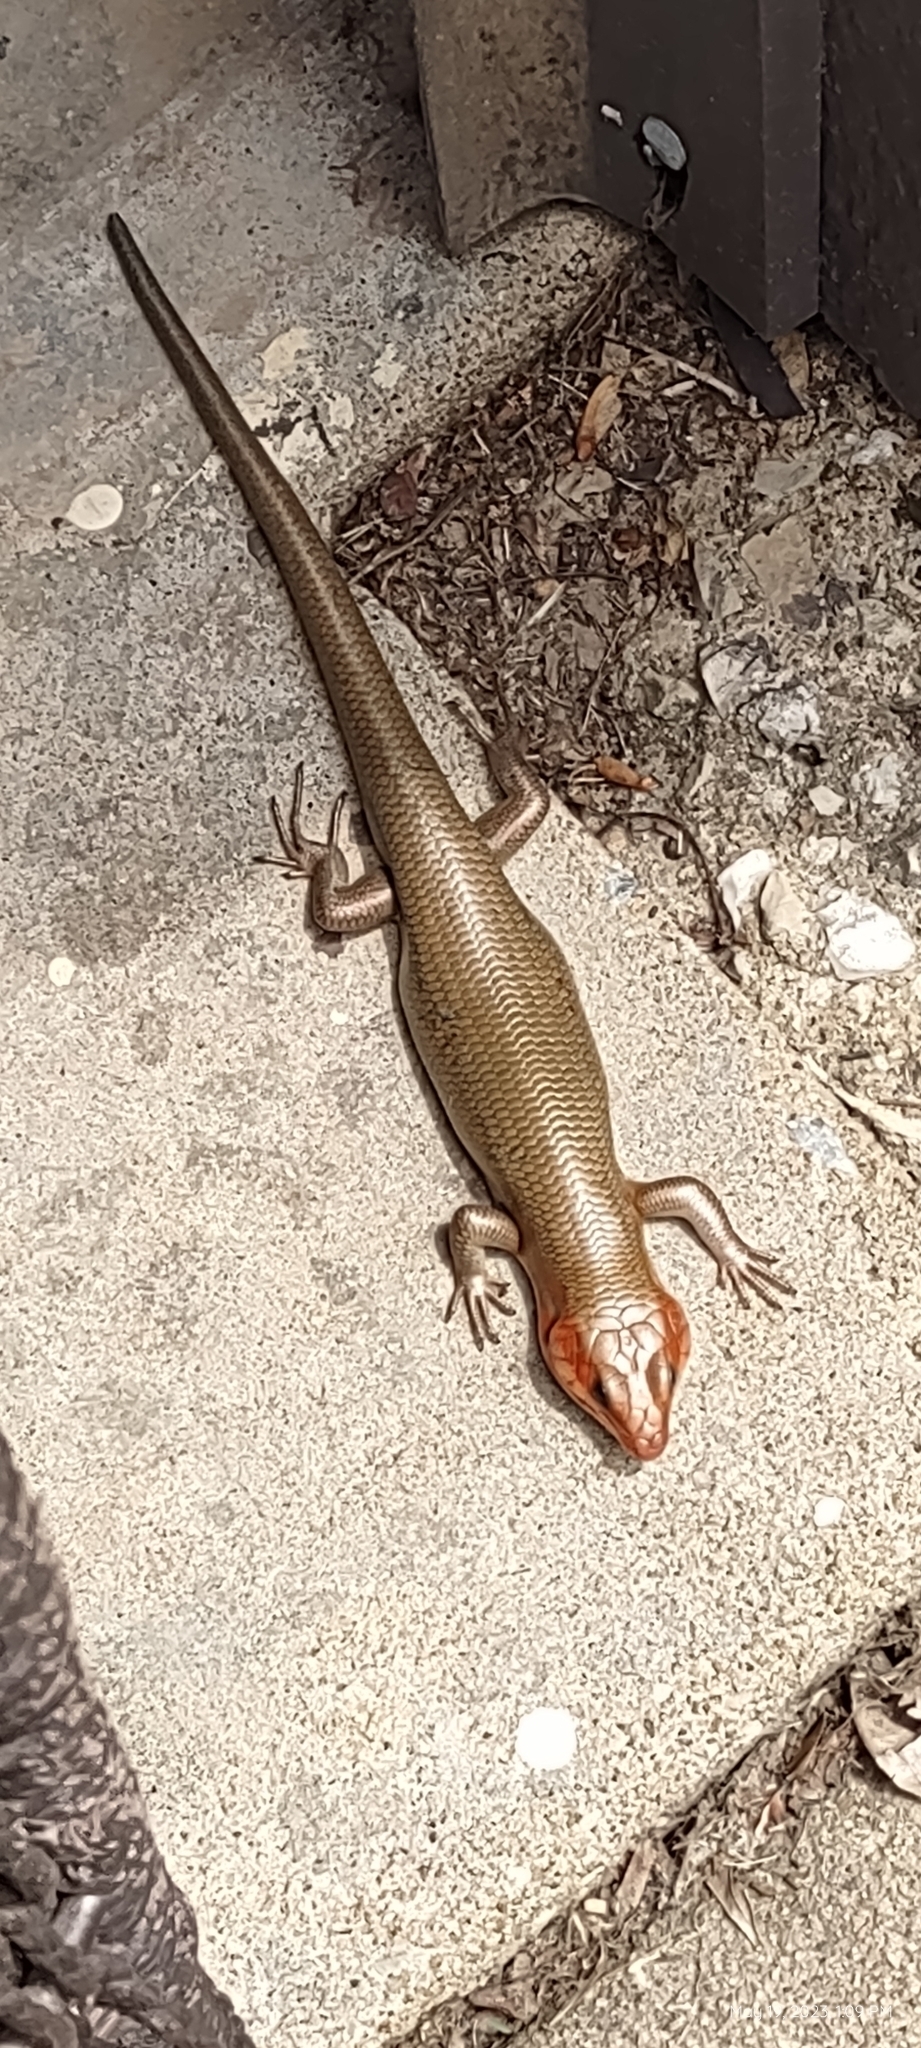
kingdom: Animalia
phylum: Chordata
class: Squamata
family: Scincidae
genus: Plestiodon
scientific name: Plestiodon laticeps
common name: Broadhead skink
